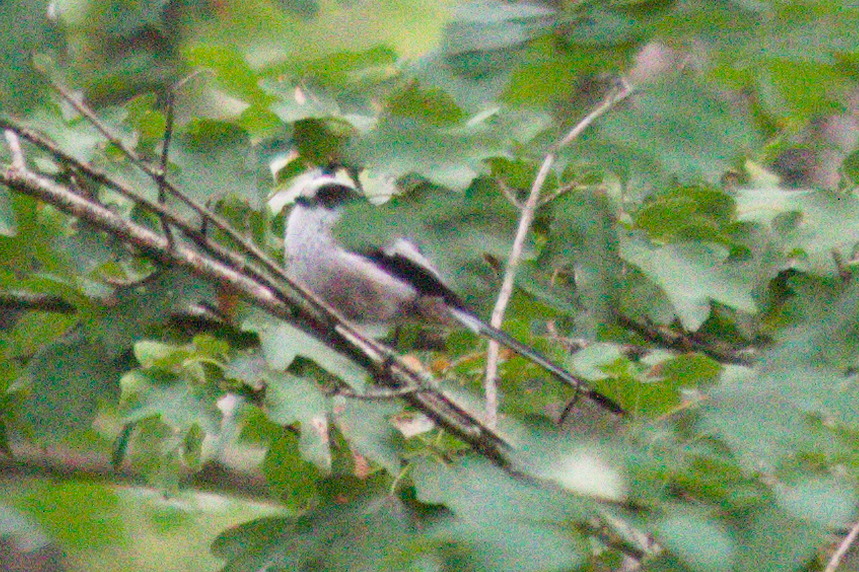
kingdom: Animalia
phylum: Chordata
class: Aves
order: Passeriformes
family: Aegithalidae
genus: Aegithalos
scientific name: Aegithalos caudatus
